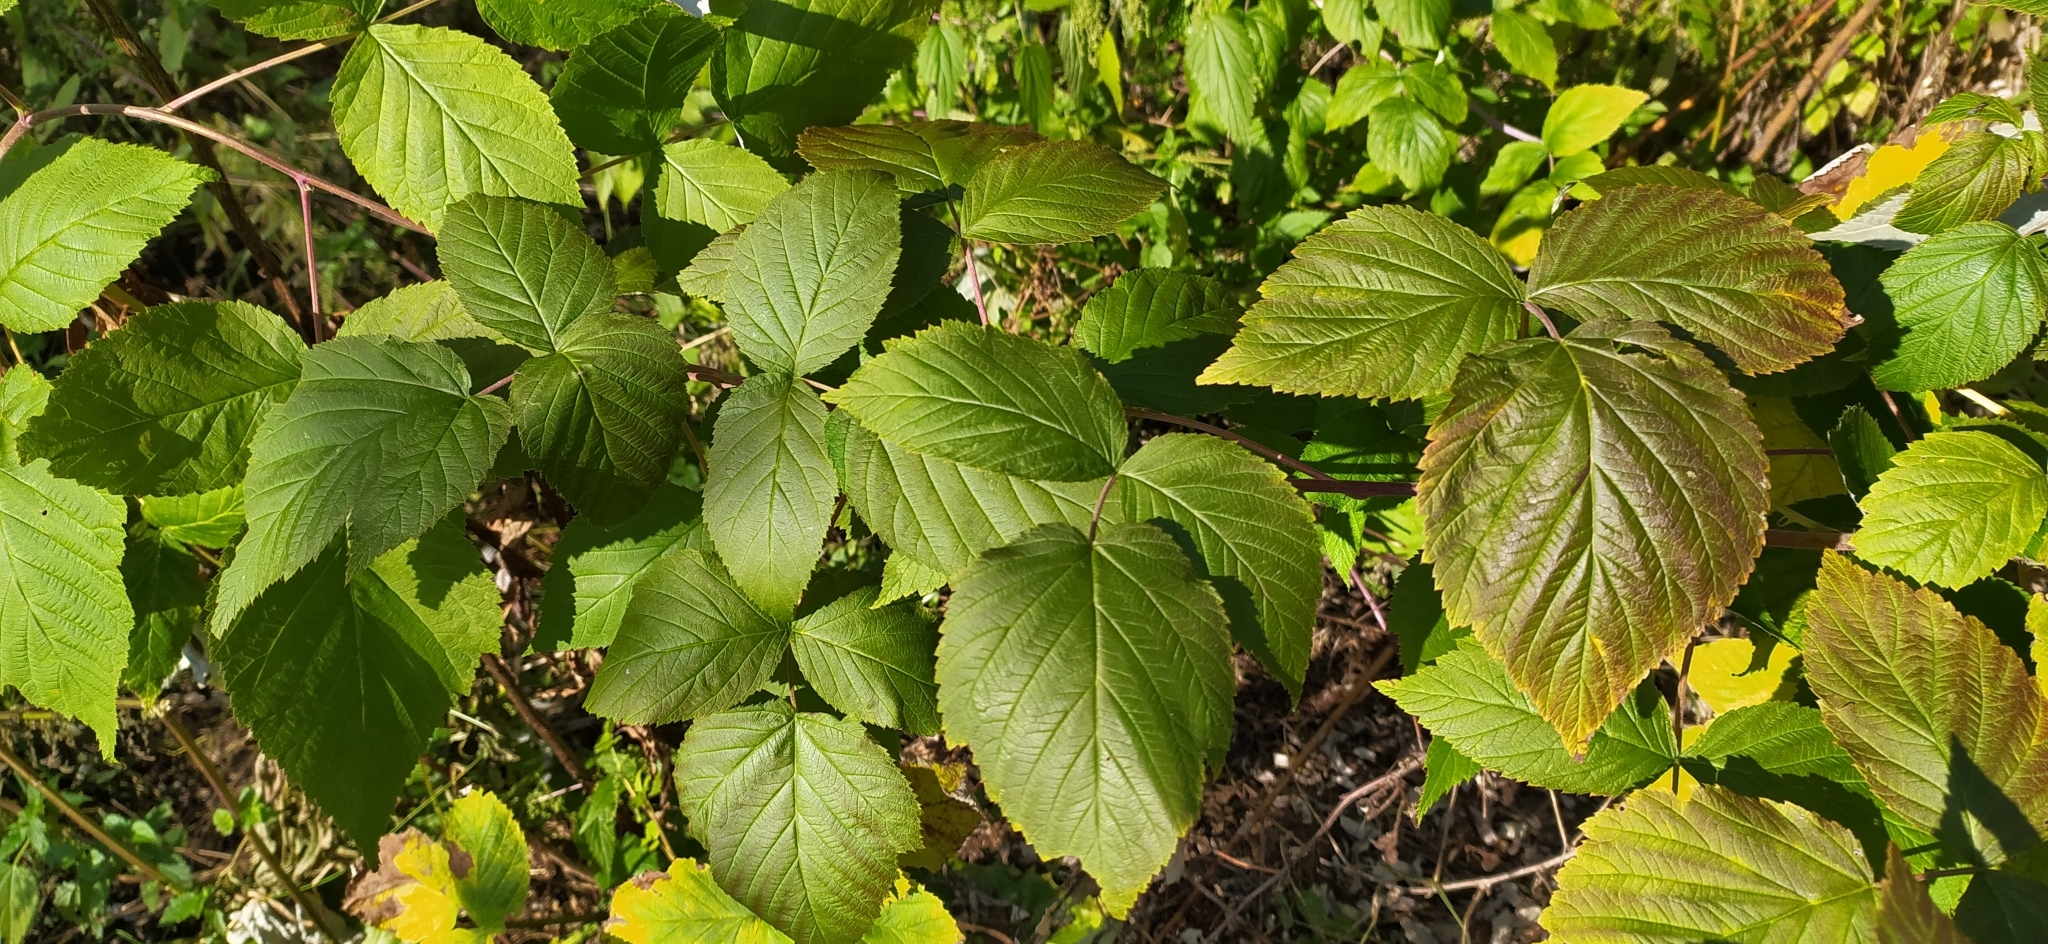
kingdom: Plantae
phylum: Tracheophyta
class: Magnoliopsida
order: Rosales
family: Rosaceae
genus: Rubus
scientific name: Rubus idaeus
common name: Raspberry
